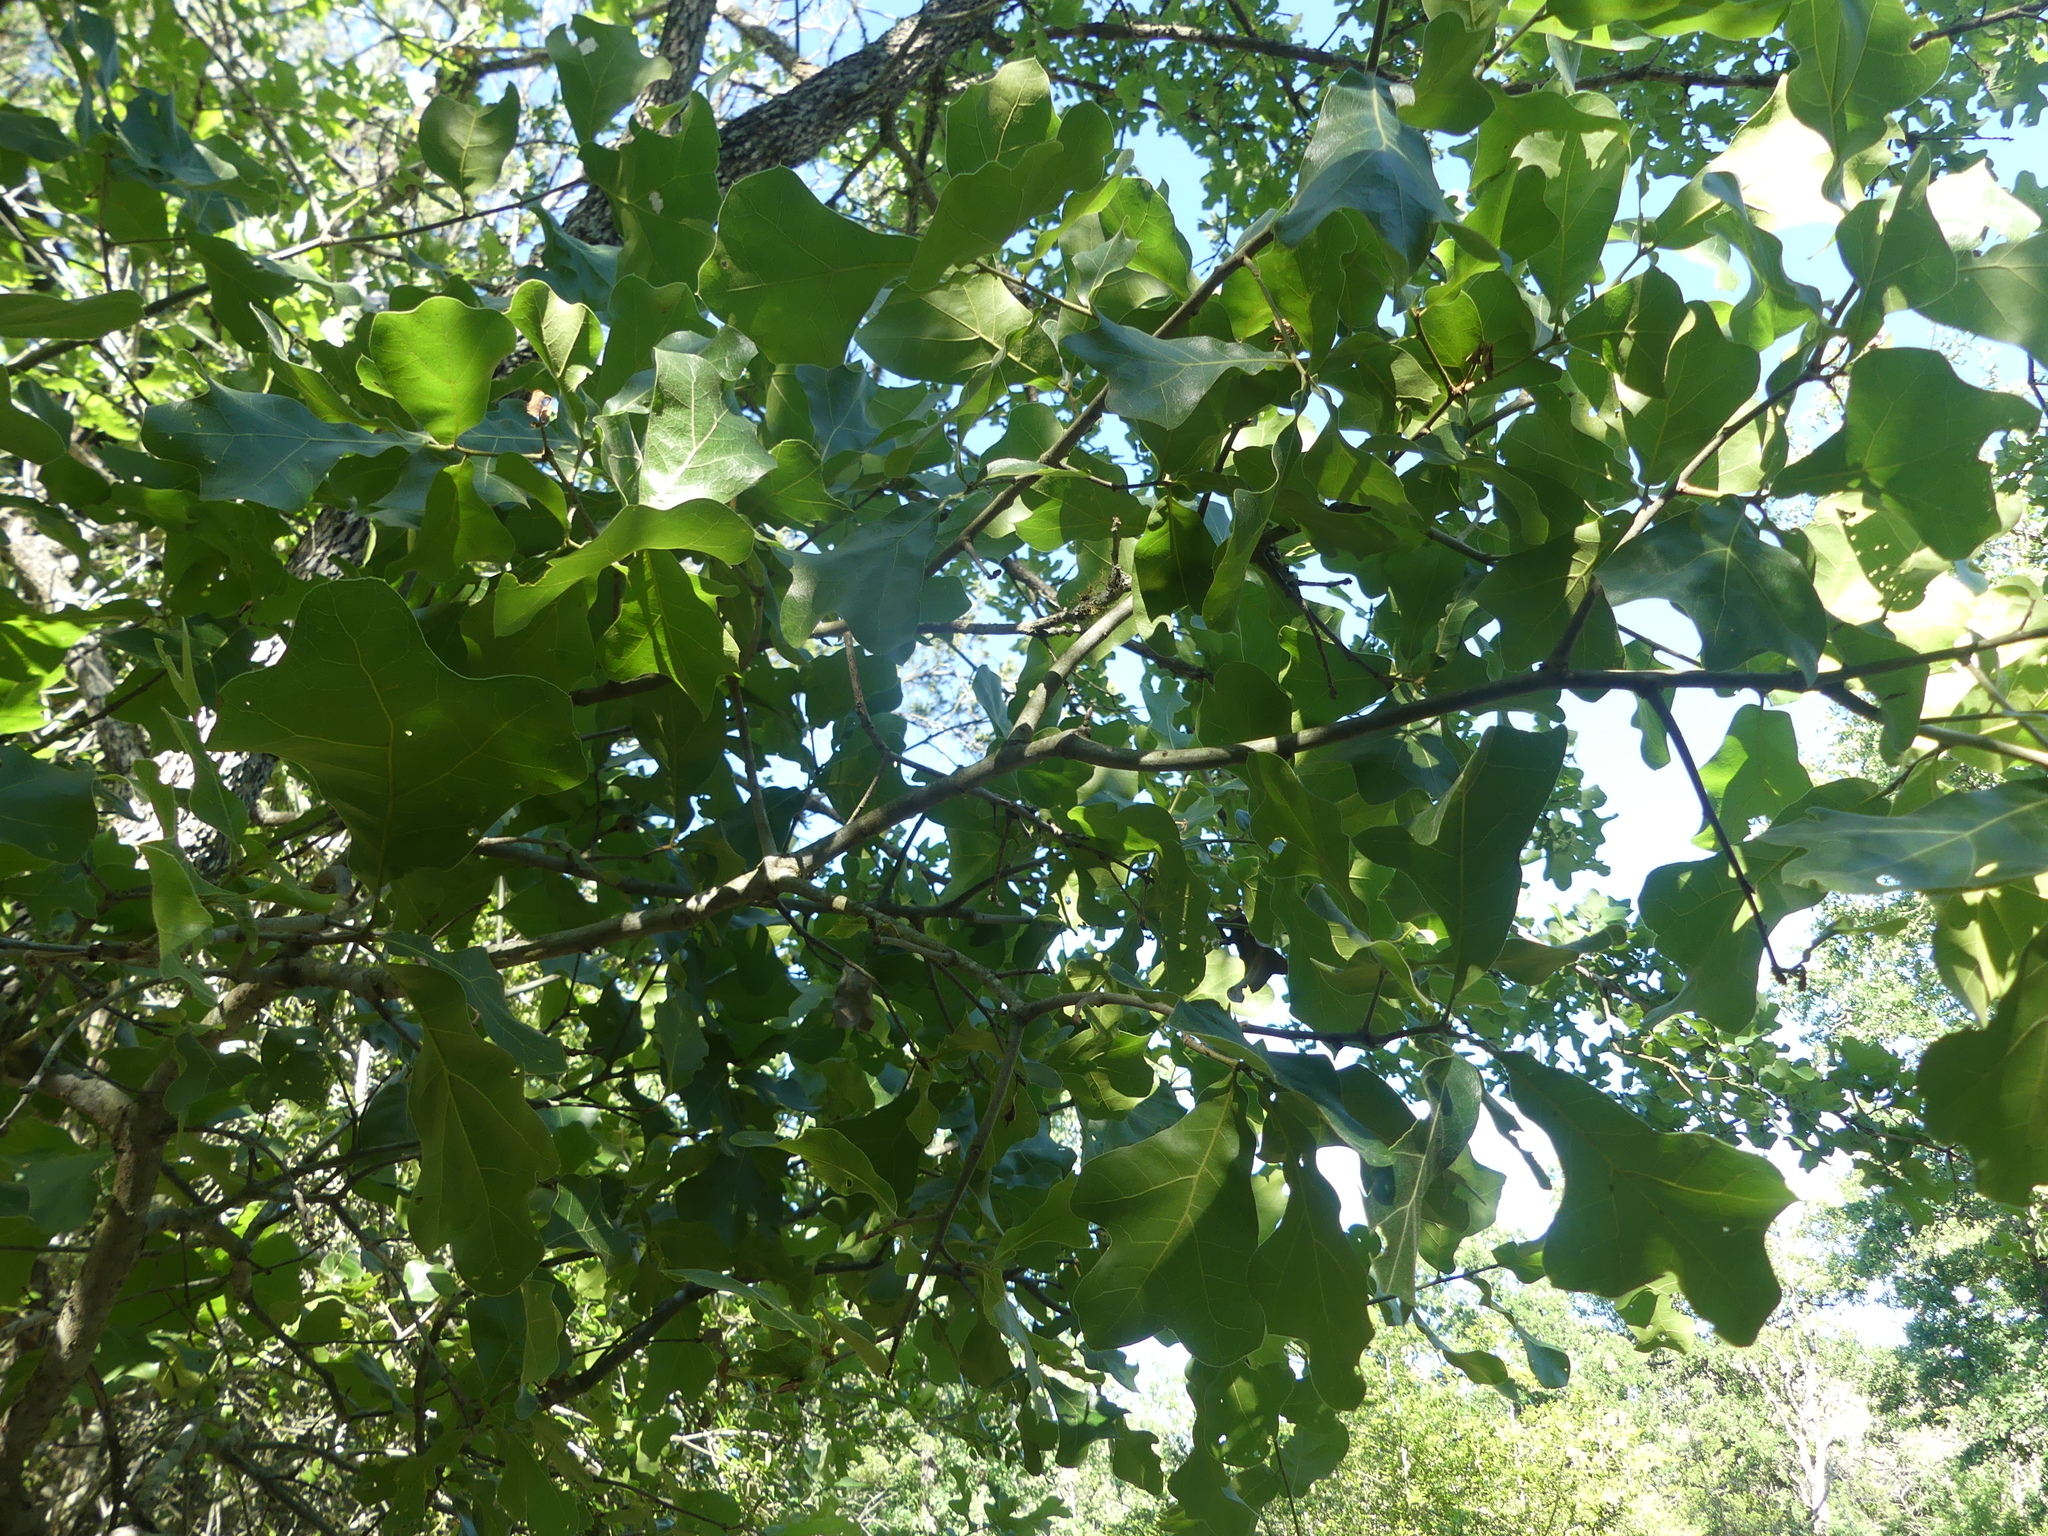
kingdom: Plantae
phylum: Tracheophyta
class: Magnoliopsida
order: Fagales
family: Fagaceae
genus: Quercus
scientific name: Quercus marilandica
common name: Blackjack oak
